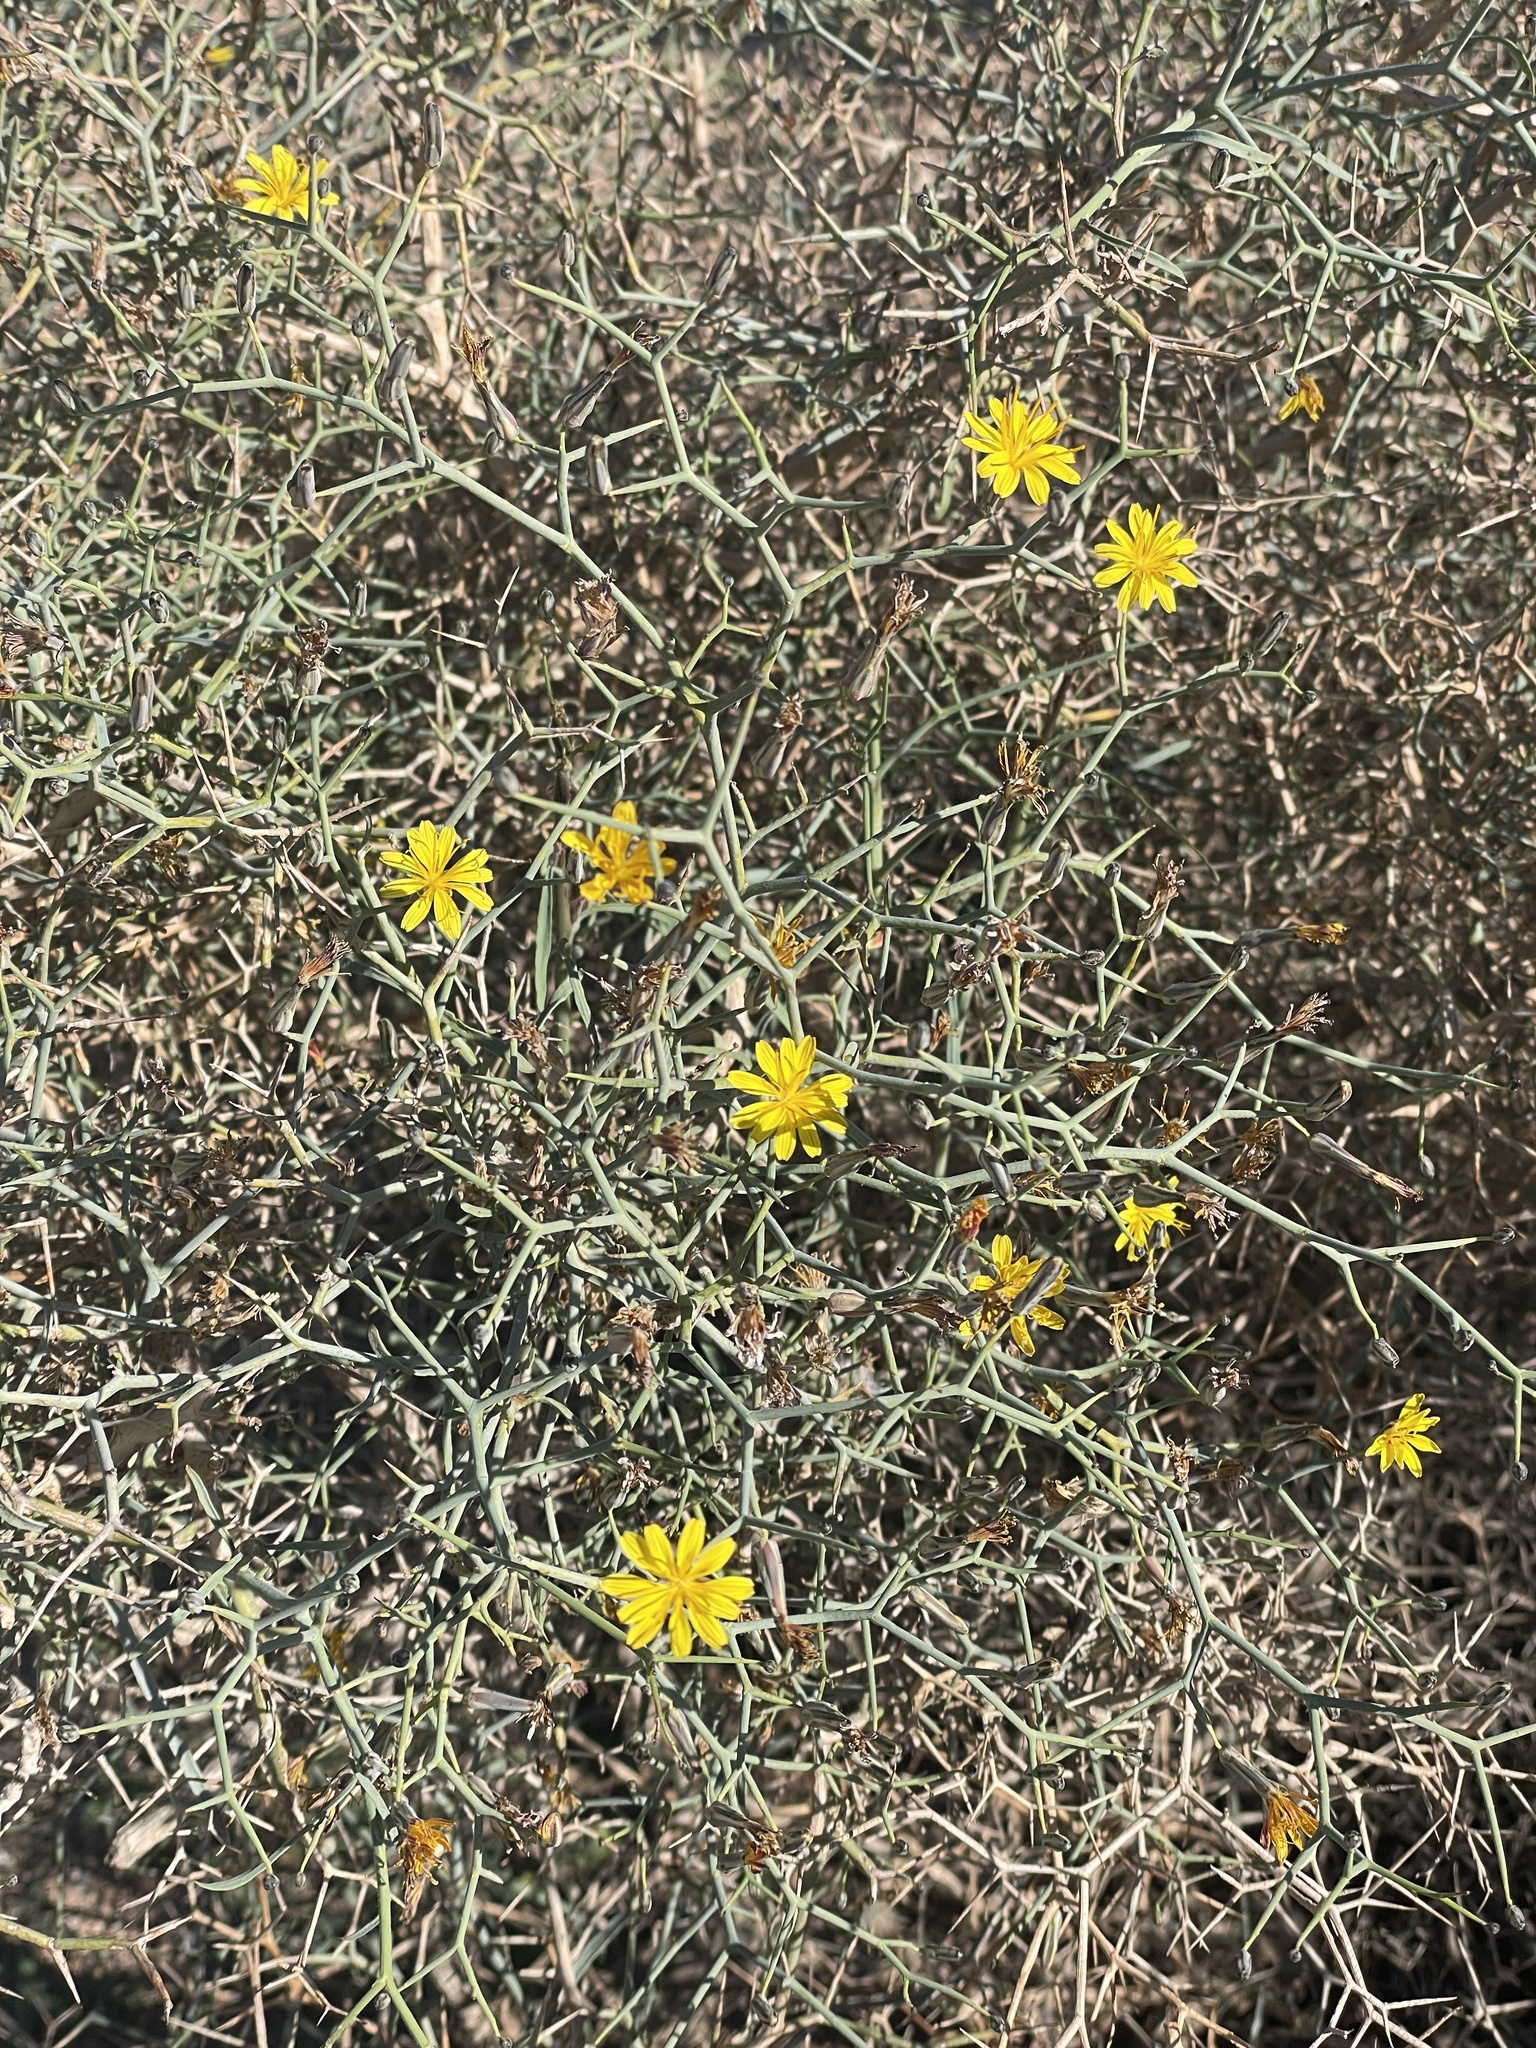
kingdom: Plantae
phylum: Tracheophyta
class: Magnoliopsida
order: Asterales
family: Asteraceae
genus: Launaea
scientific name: Launaea arborescens
